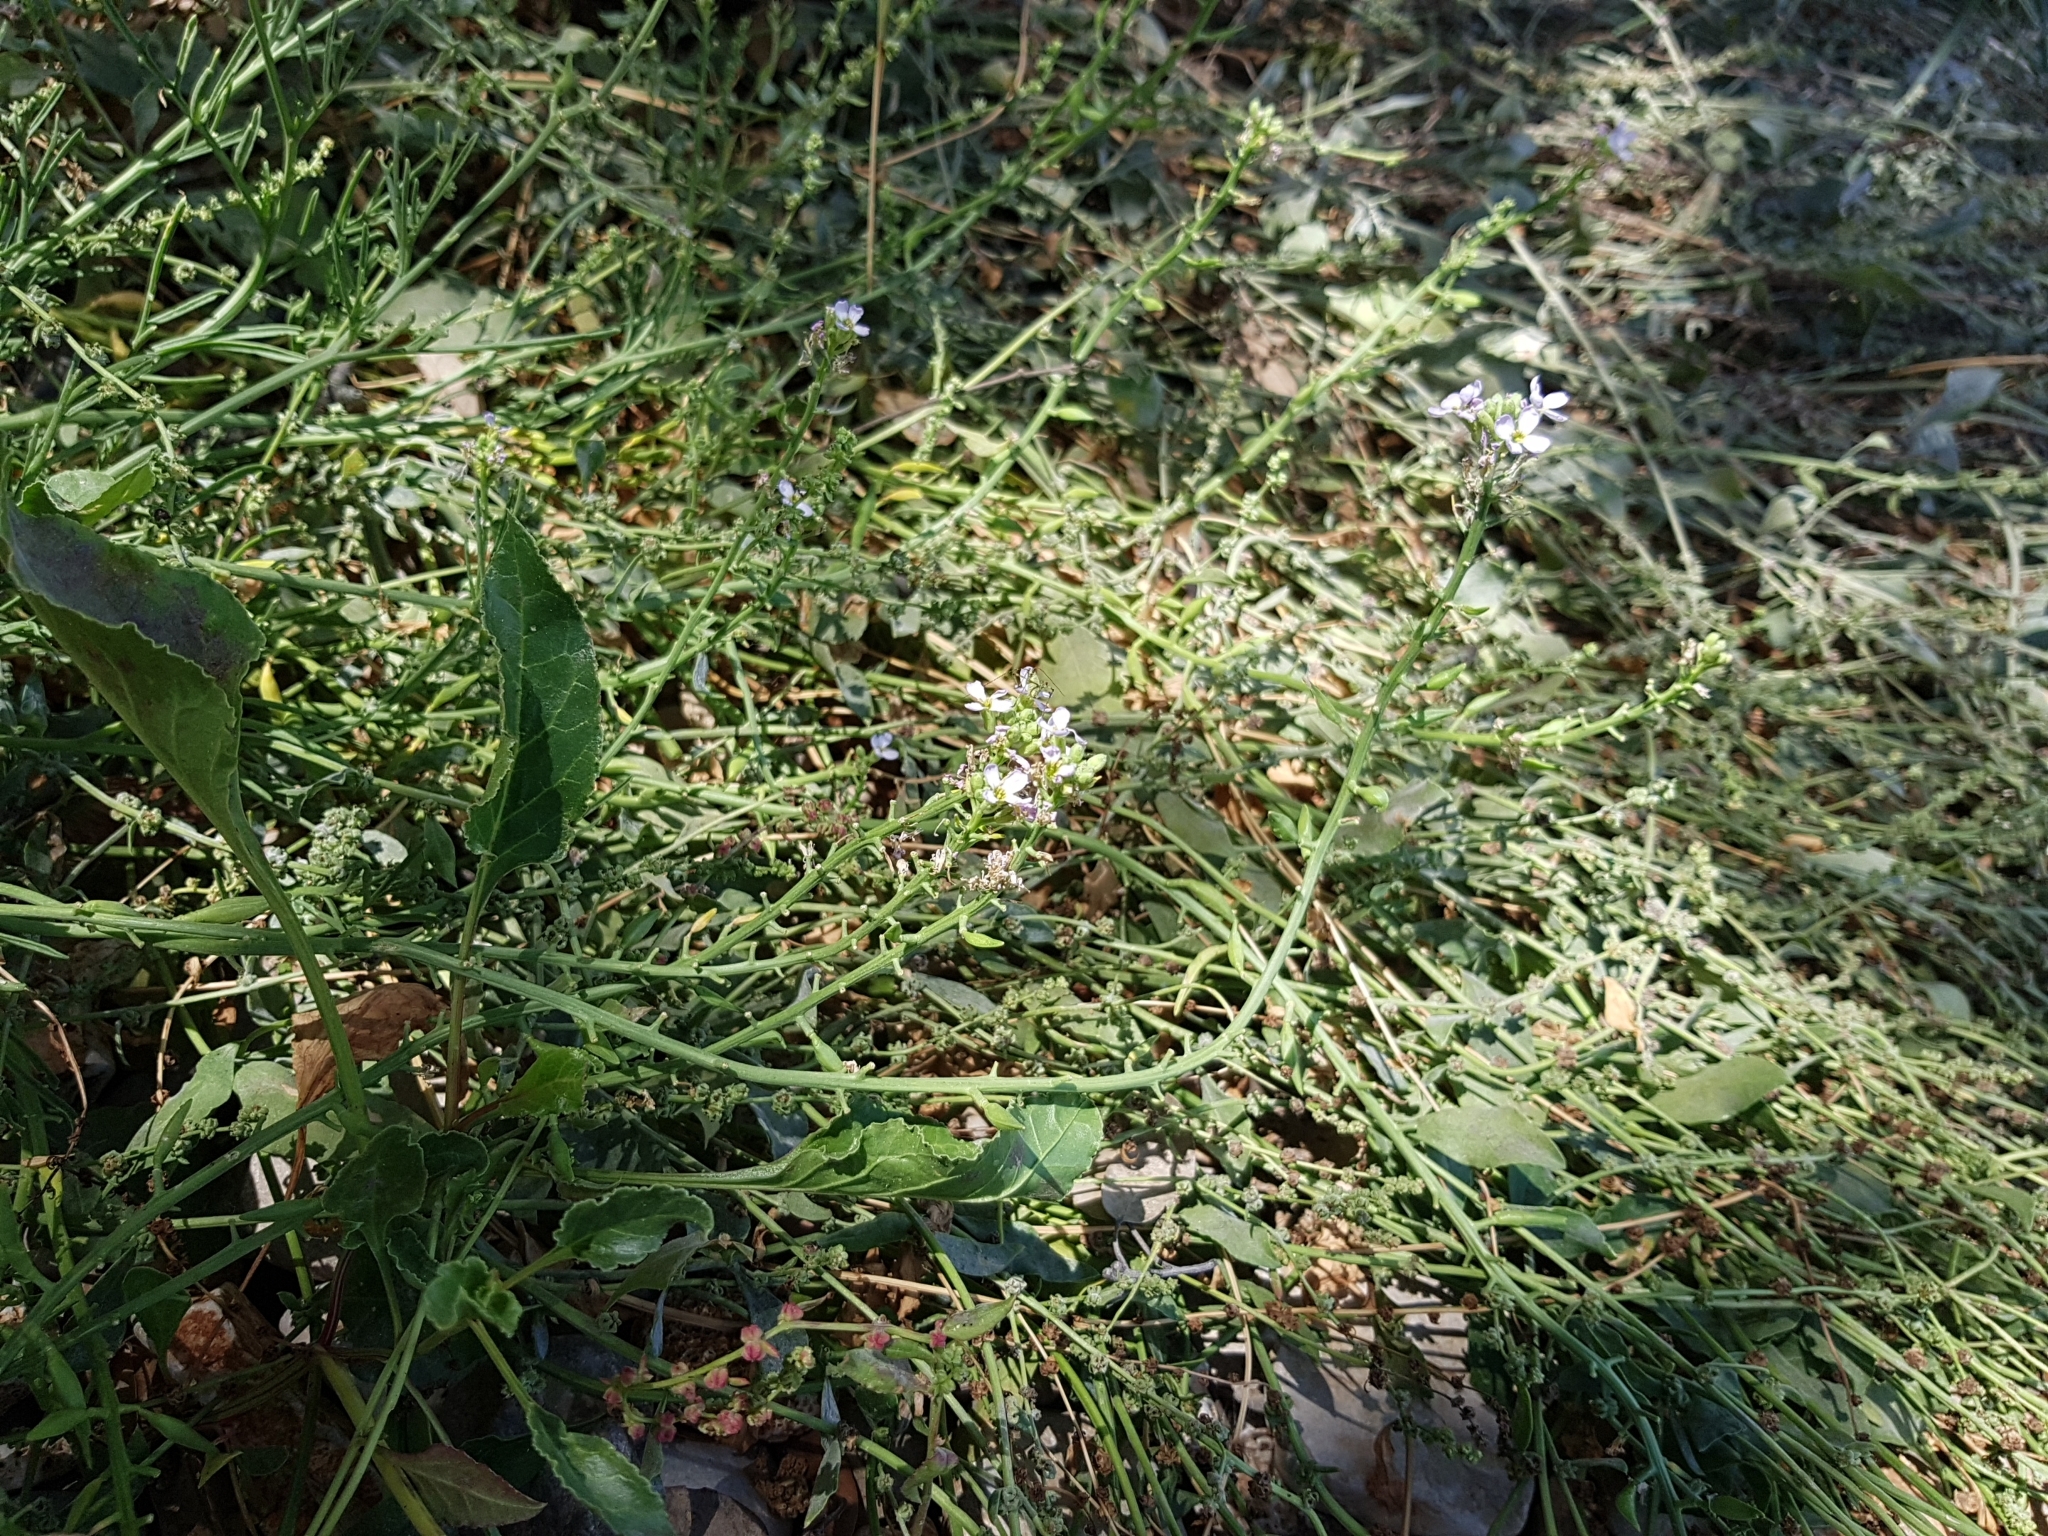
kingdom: Plantae
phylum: Tracheophyta
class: Magnoliopsida
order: Brassicales
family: Brassicaceae
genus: Cakile
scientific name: Cakile maritima
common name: Sea rocket
